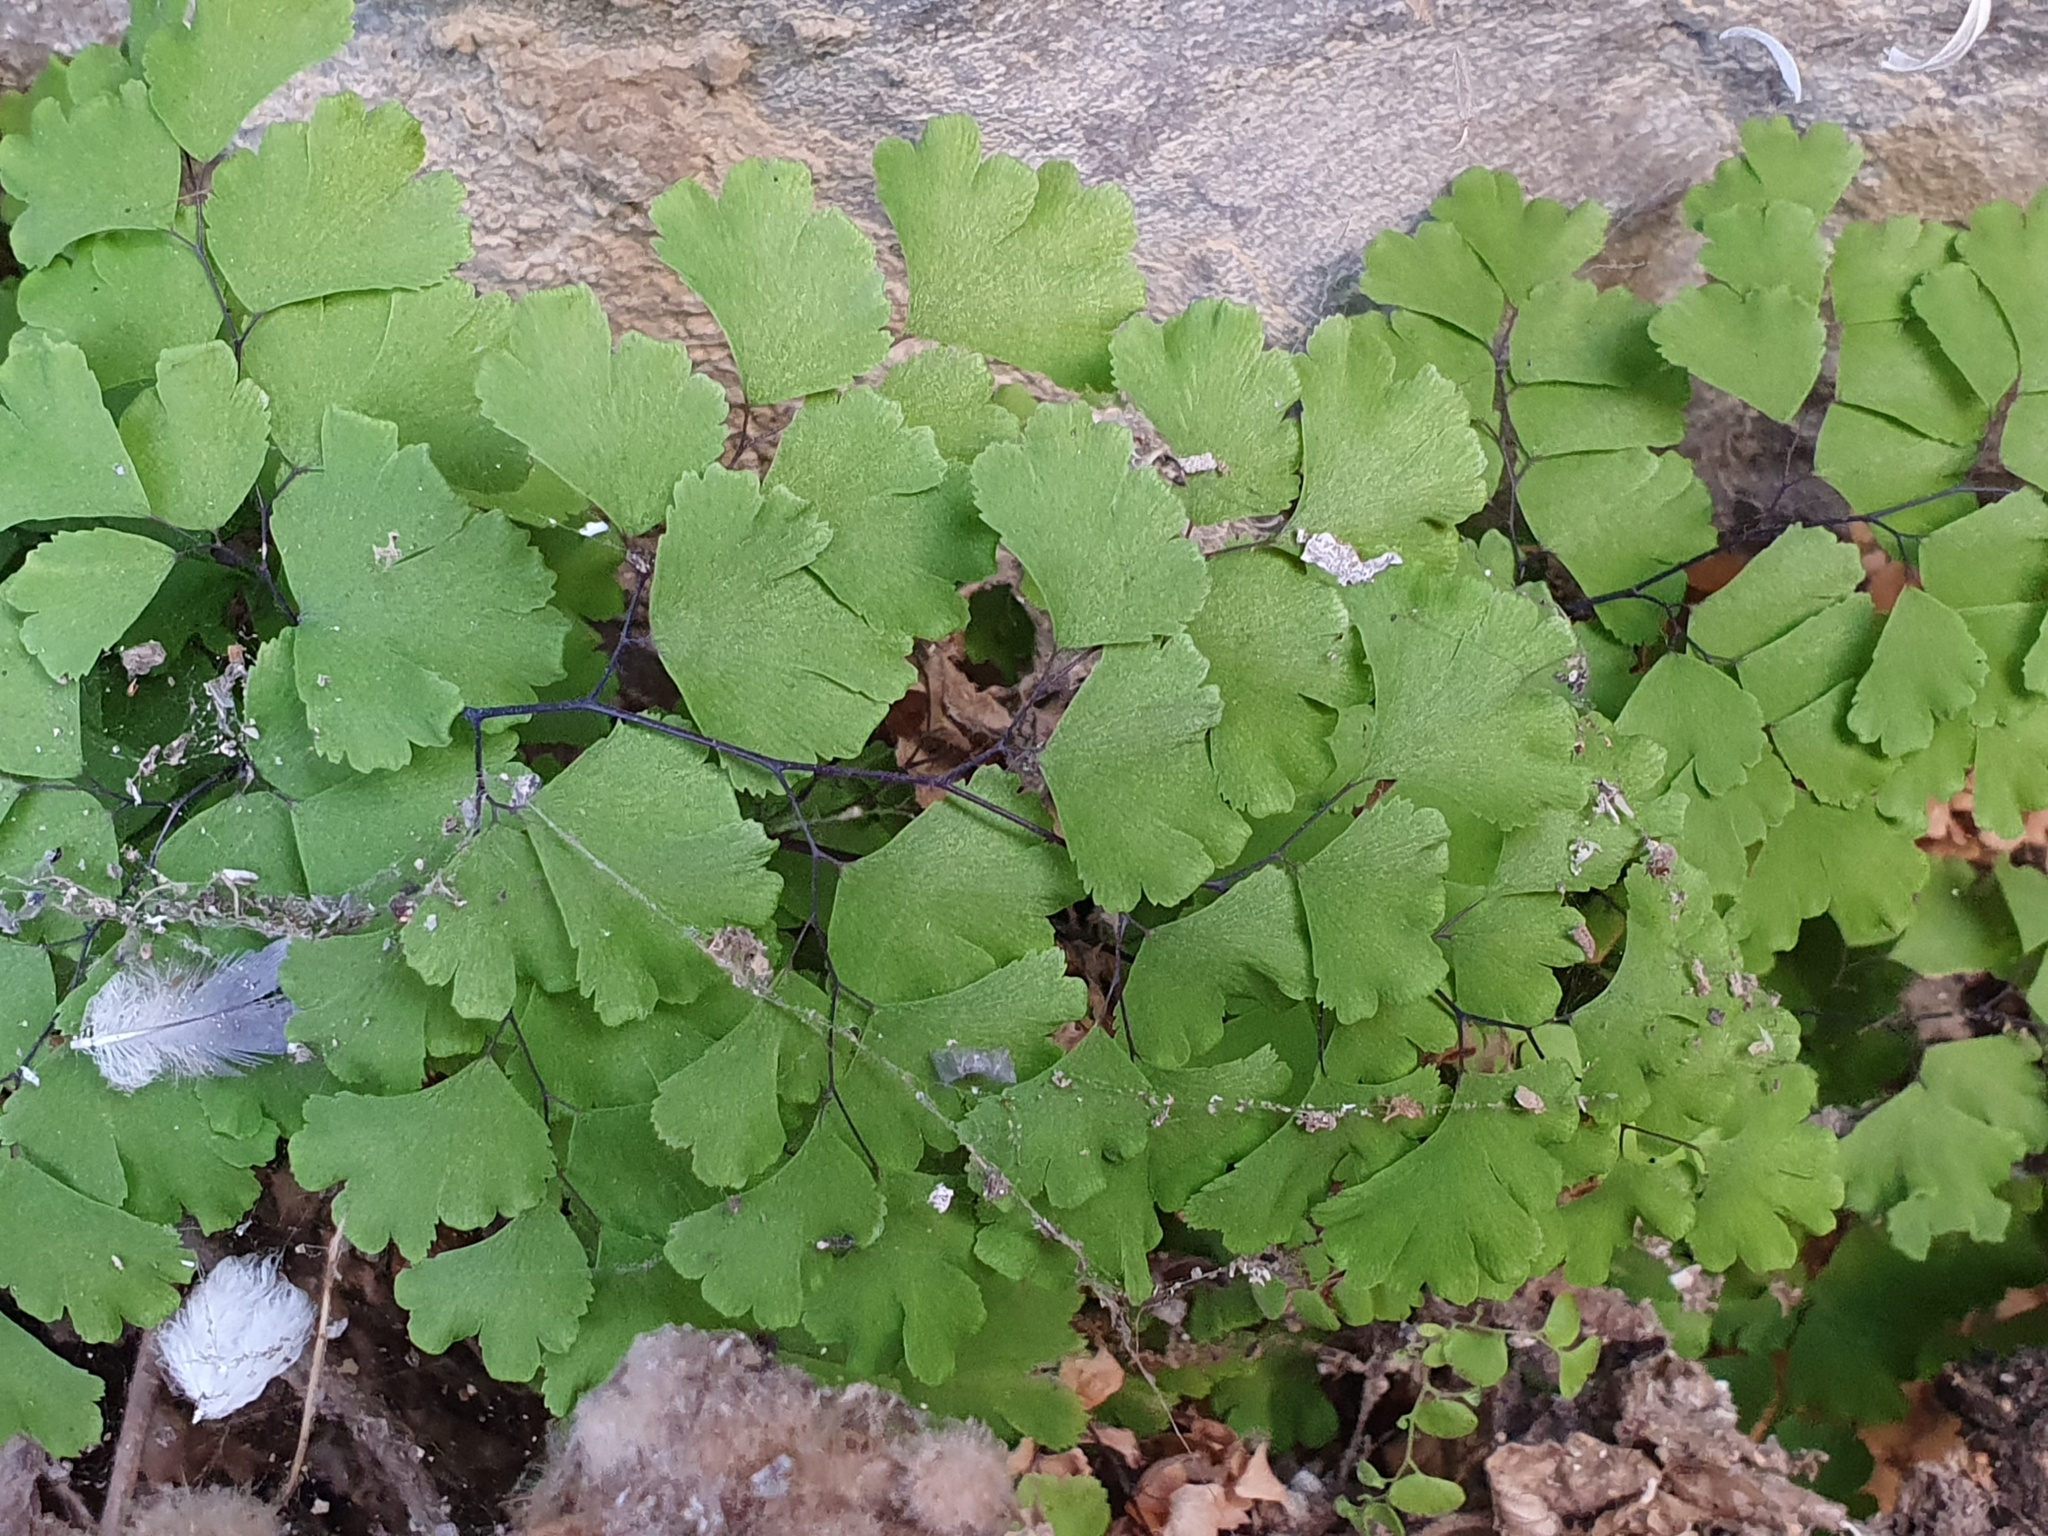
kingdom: Plantae
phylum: Tracheophyta
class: Polypodiopsida
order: Polypodiales
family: Pteridaceae
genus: Adiantum
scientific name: Adiantum capillus-veneris
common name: Maidenhair fern
